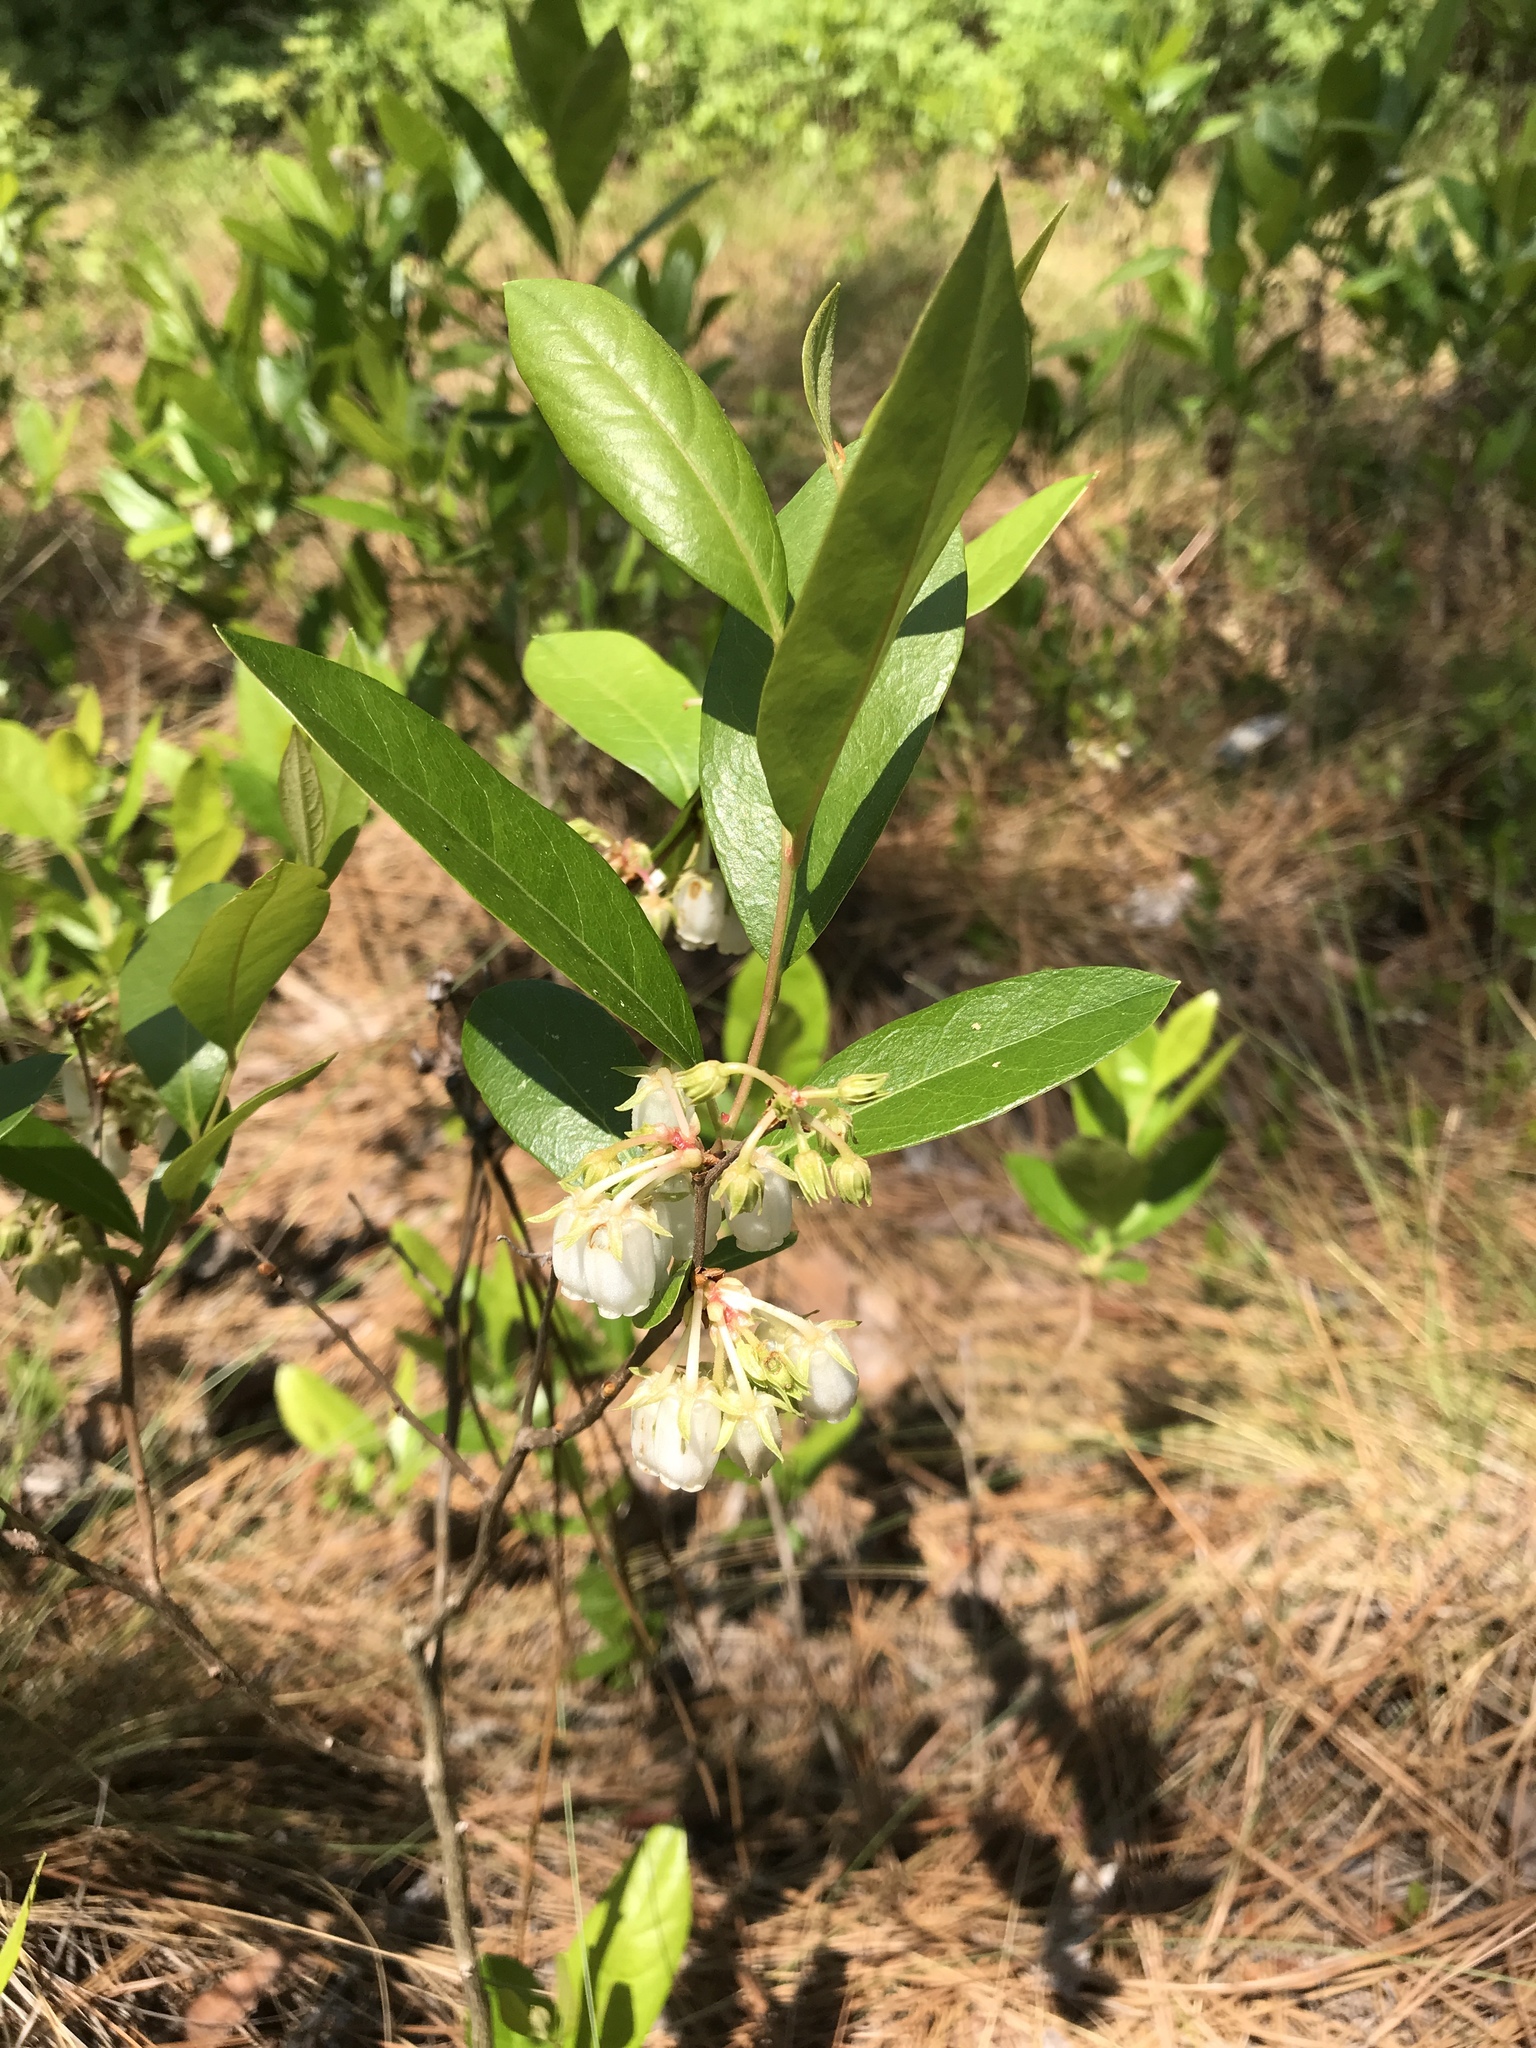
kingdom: Plantae
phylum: Tracheophyta
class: Magnoliopsida
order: Ericales
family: Ericaceae
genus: Lyonia
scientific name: Lyonia mariana
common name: Staggerbush
